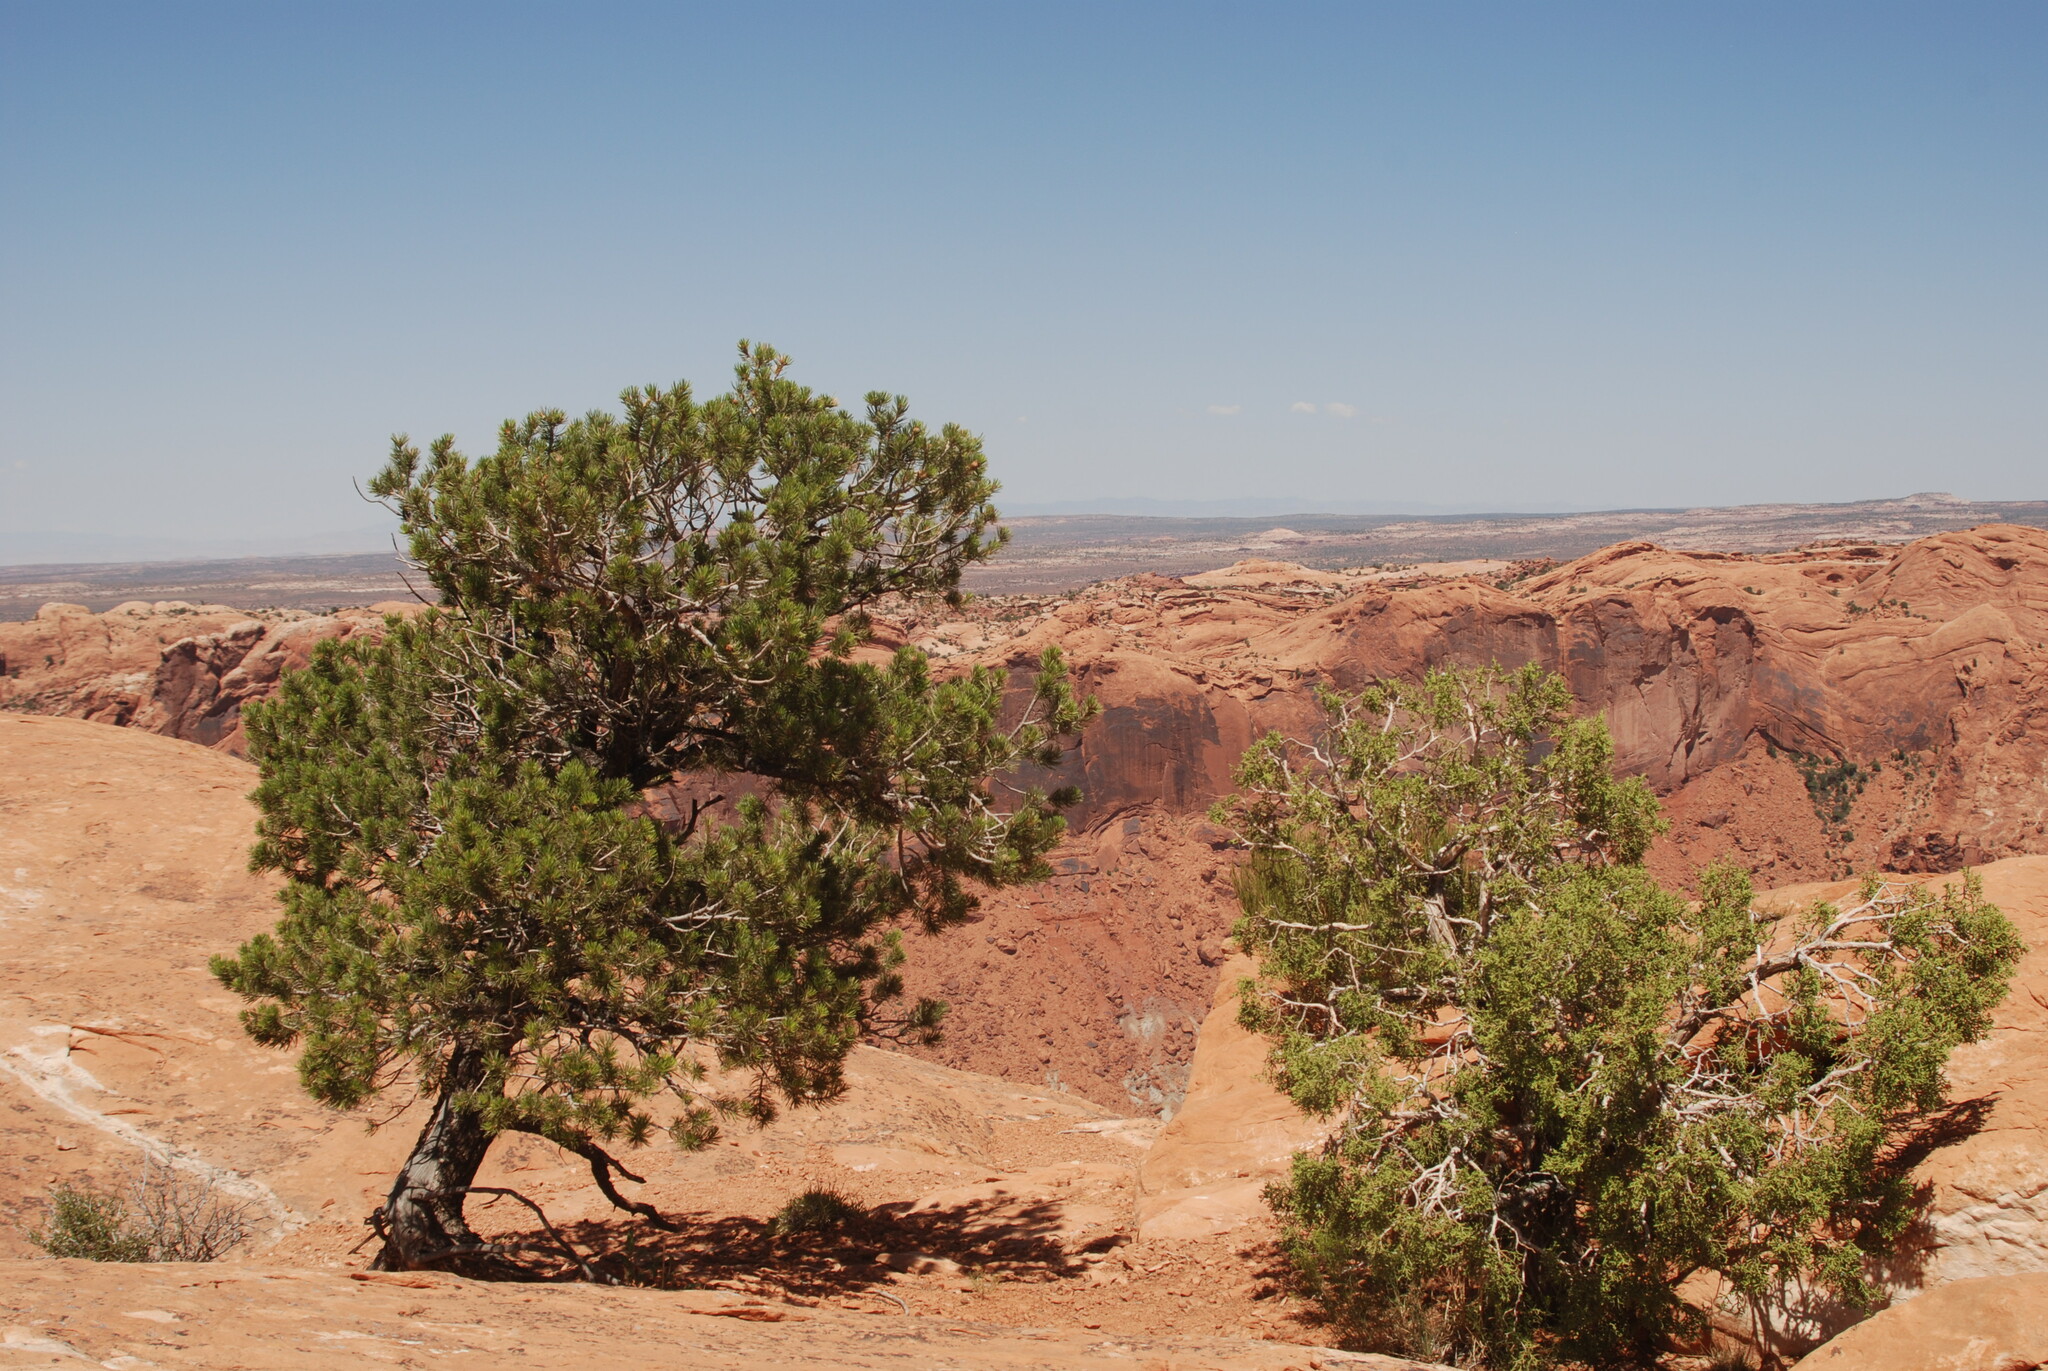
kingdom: Plantae
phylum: Tracheophyta
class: Pinopsida
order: Pinales
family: Cupressaceae
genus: Juniperus
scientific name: Juniperus osteosperma
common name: Utah juniper
